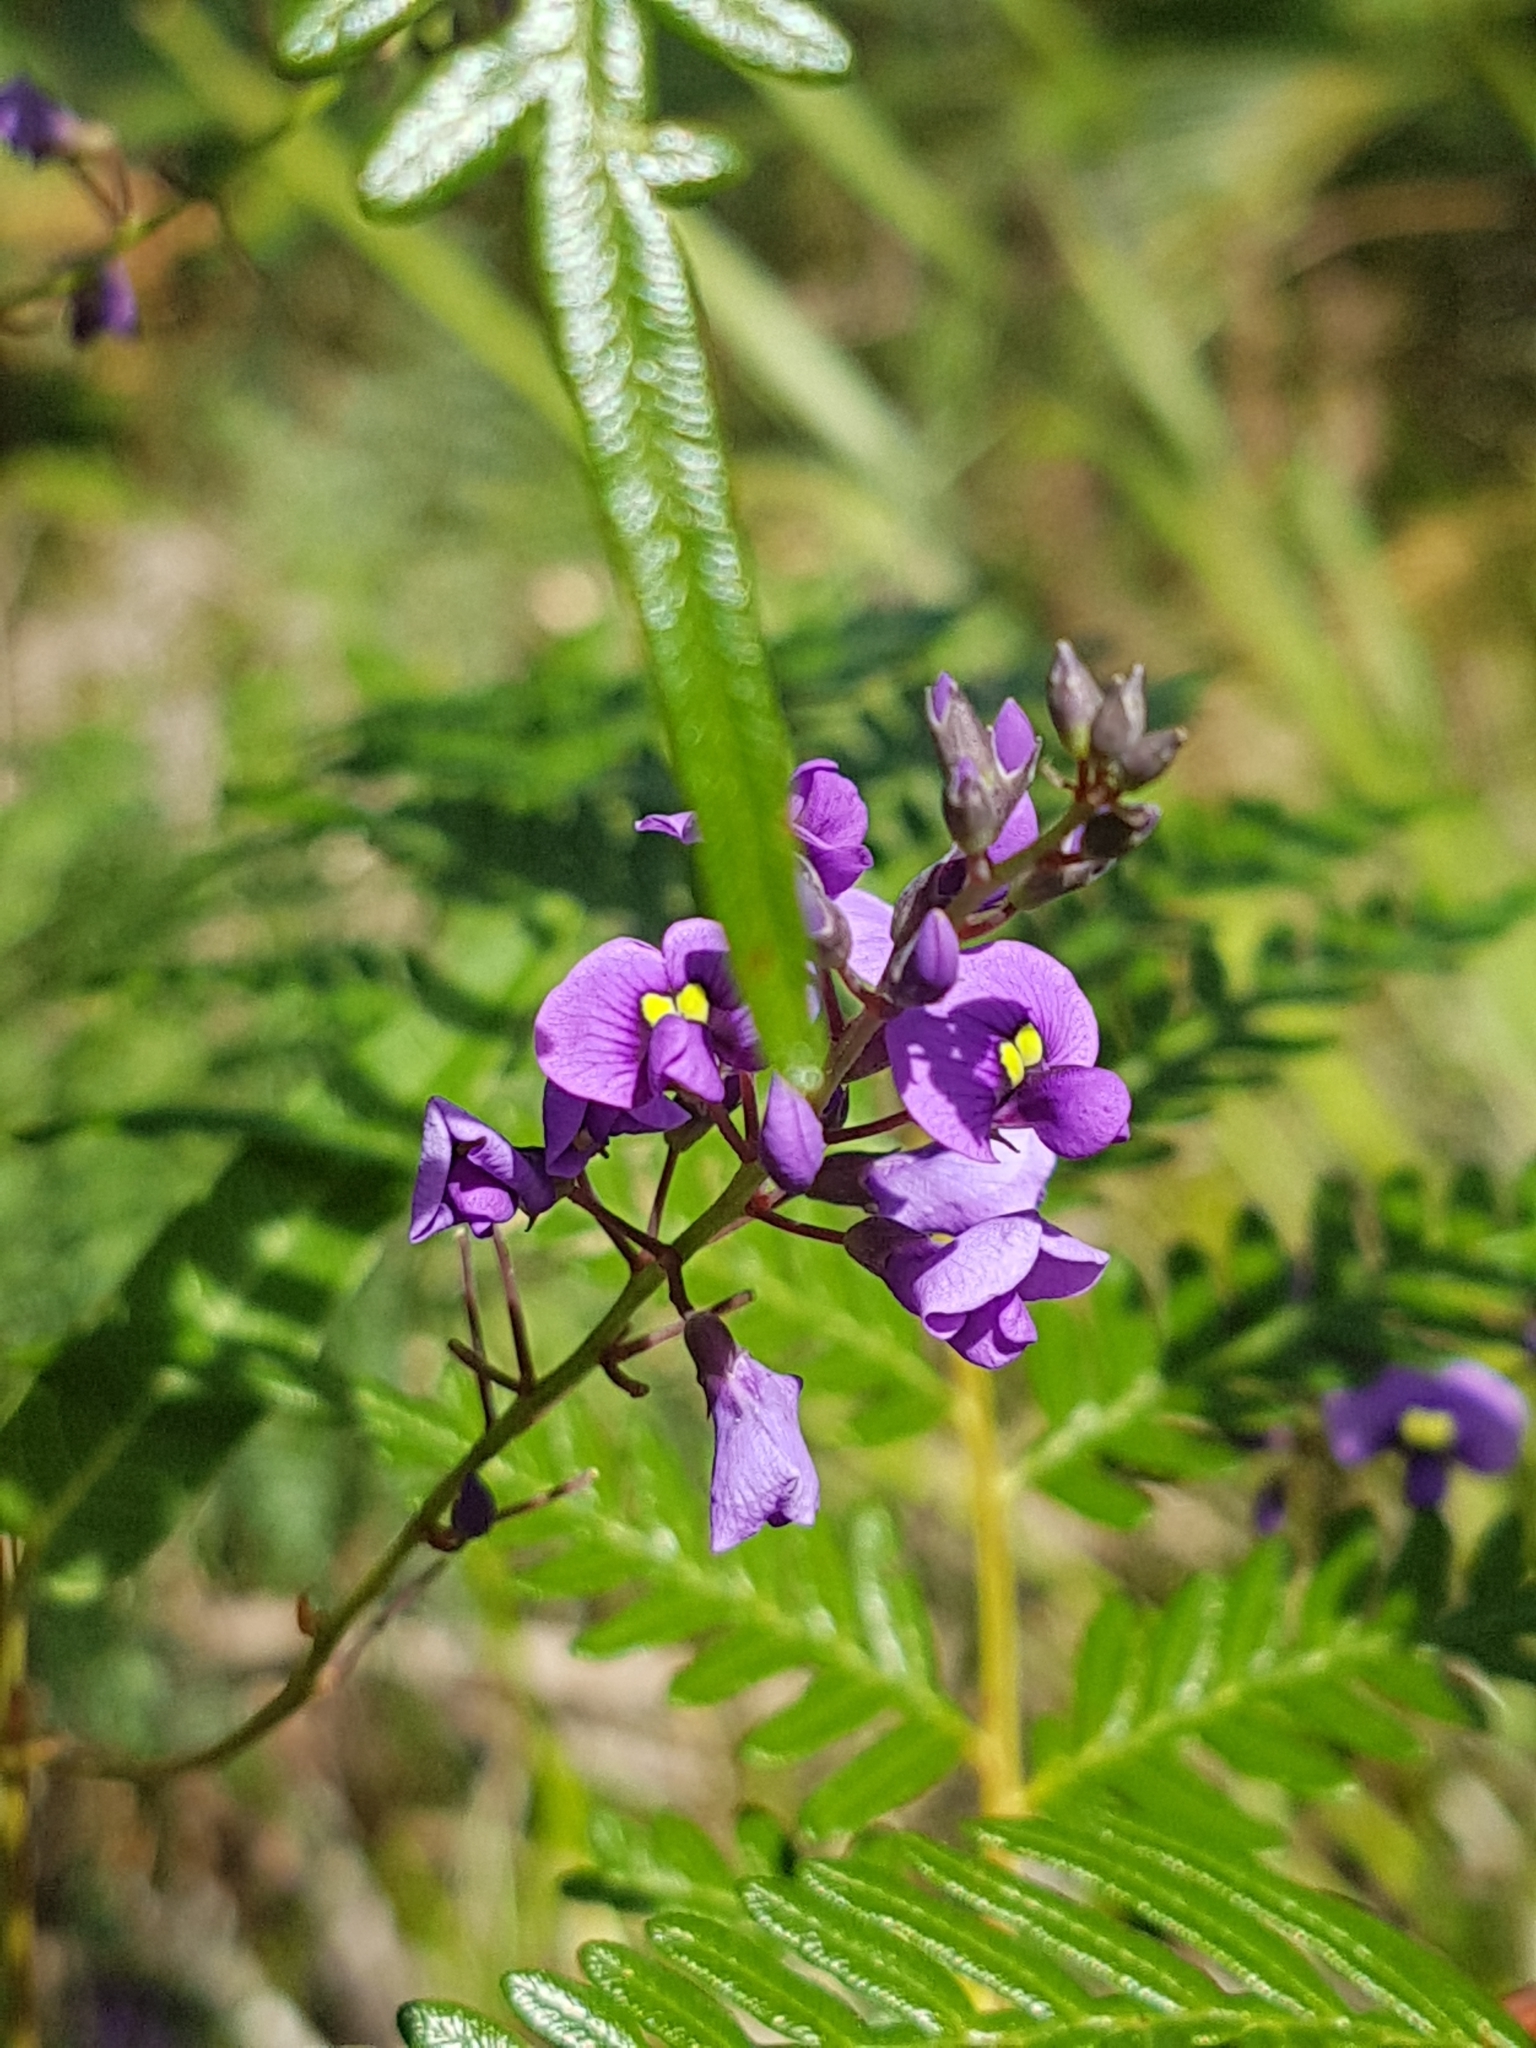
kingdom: Plantae
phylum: Tracheophyta
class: Magnoliopsida
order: Fabales
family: Fabaceae
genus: Hardenbergia
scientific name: Hardenbergia violacea
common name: Coral-pea
